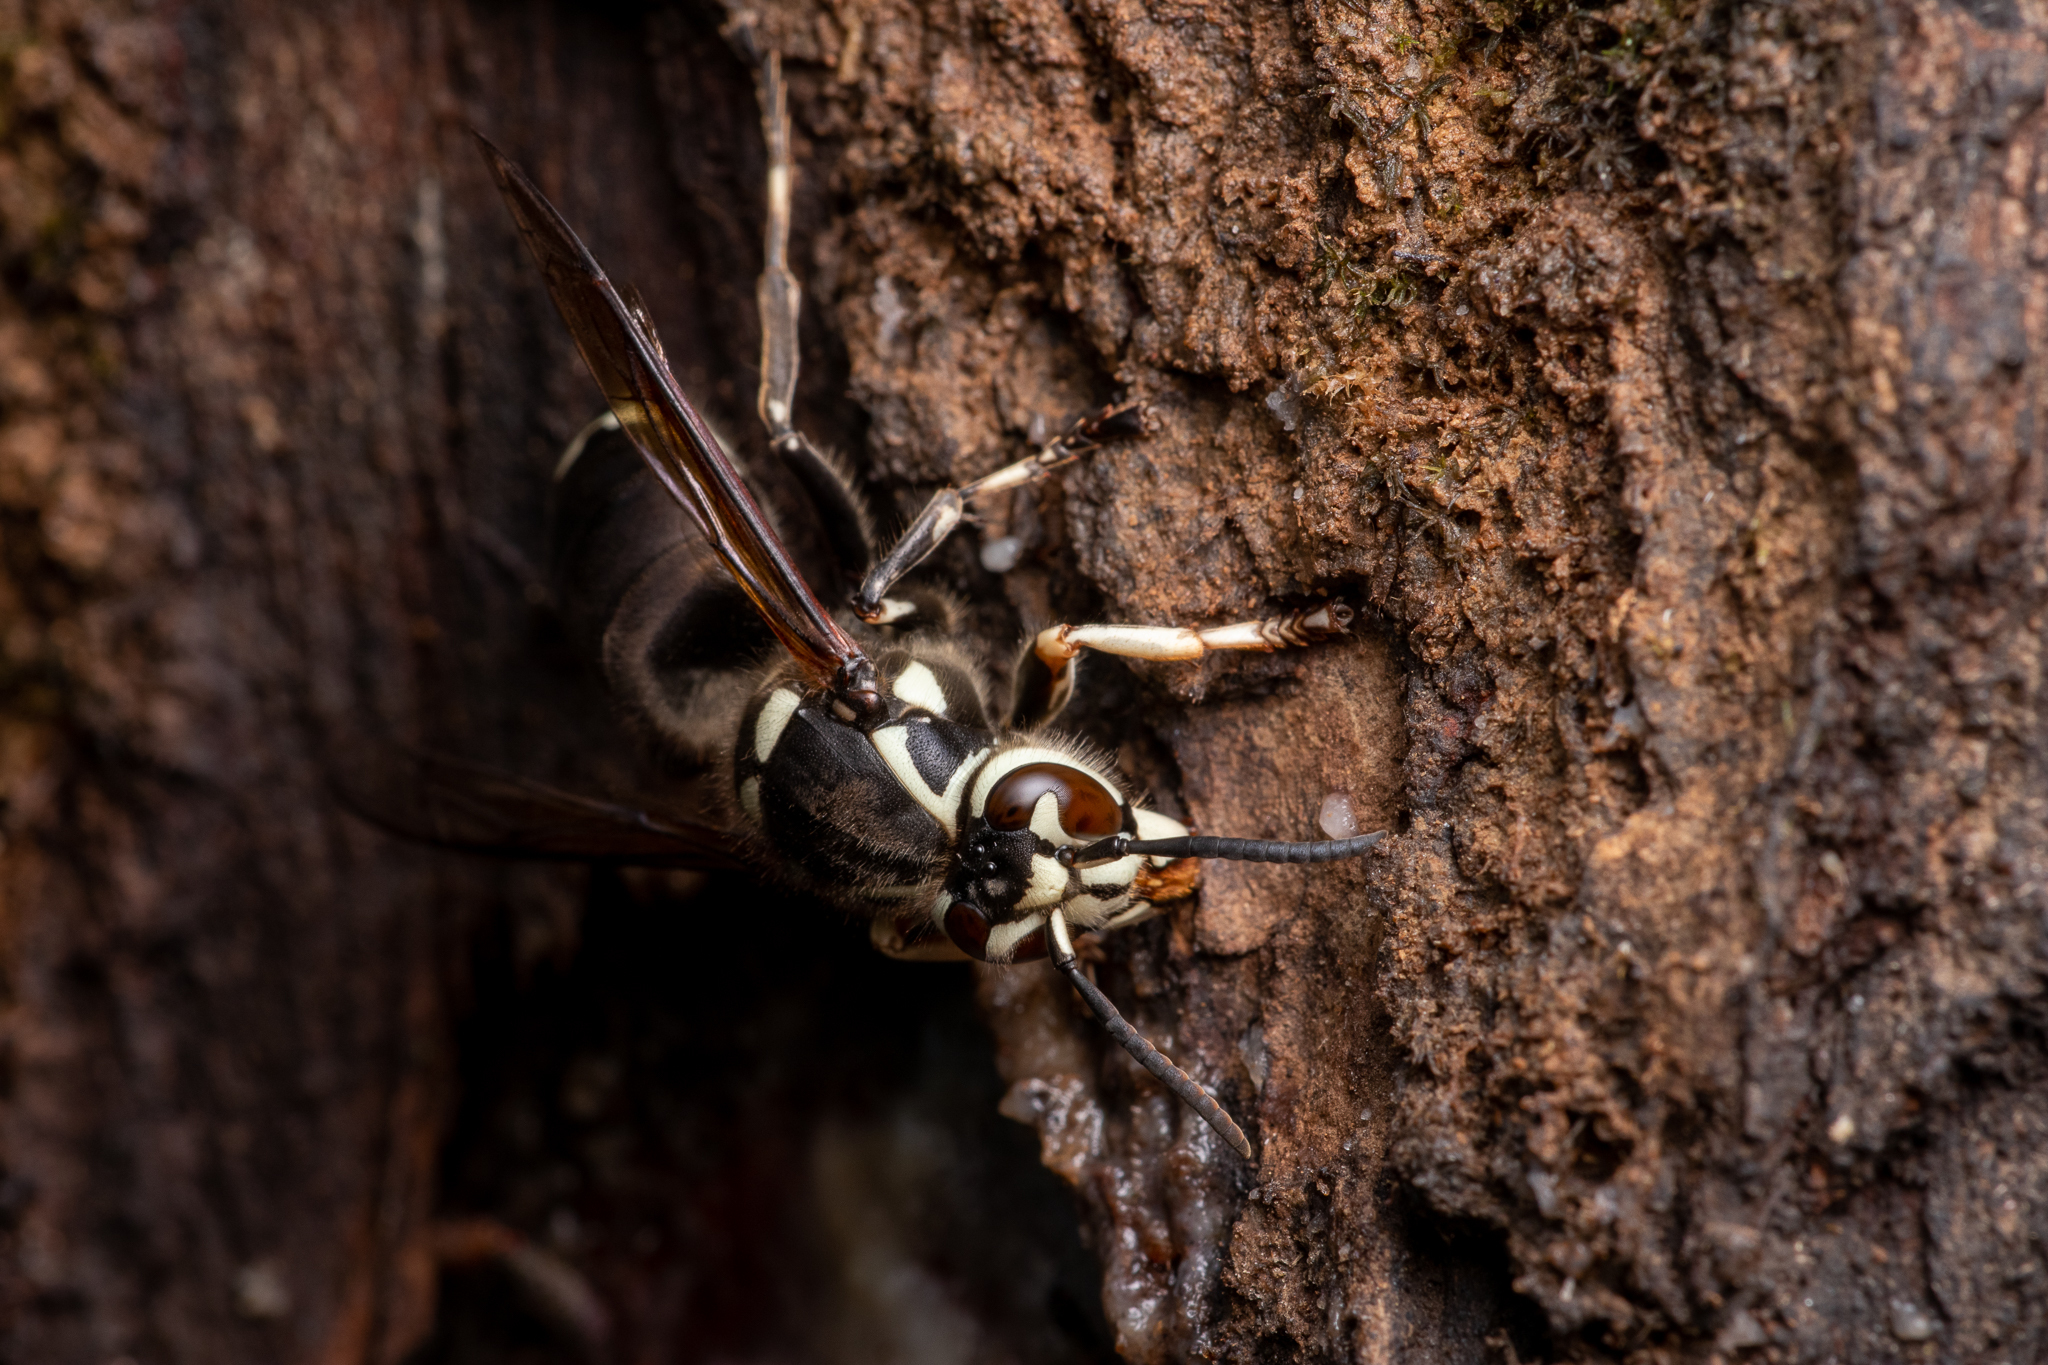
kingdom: Animalia
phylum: Arthropoda
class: Insecta
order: Hymenoptera
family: Vespidae
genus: Dolichovespula
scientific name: Dolichovespula maculata
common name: Bald-faced hornet
